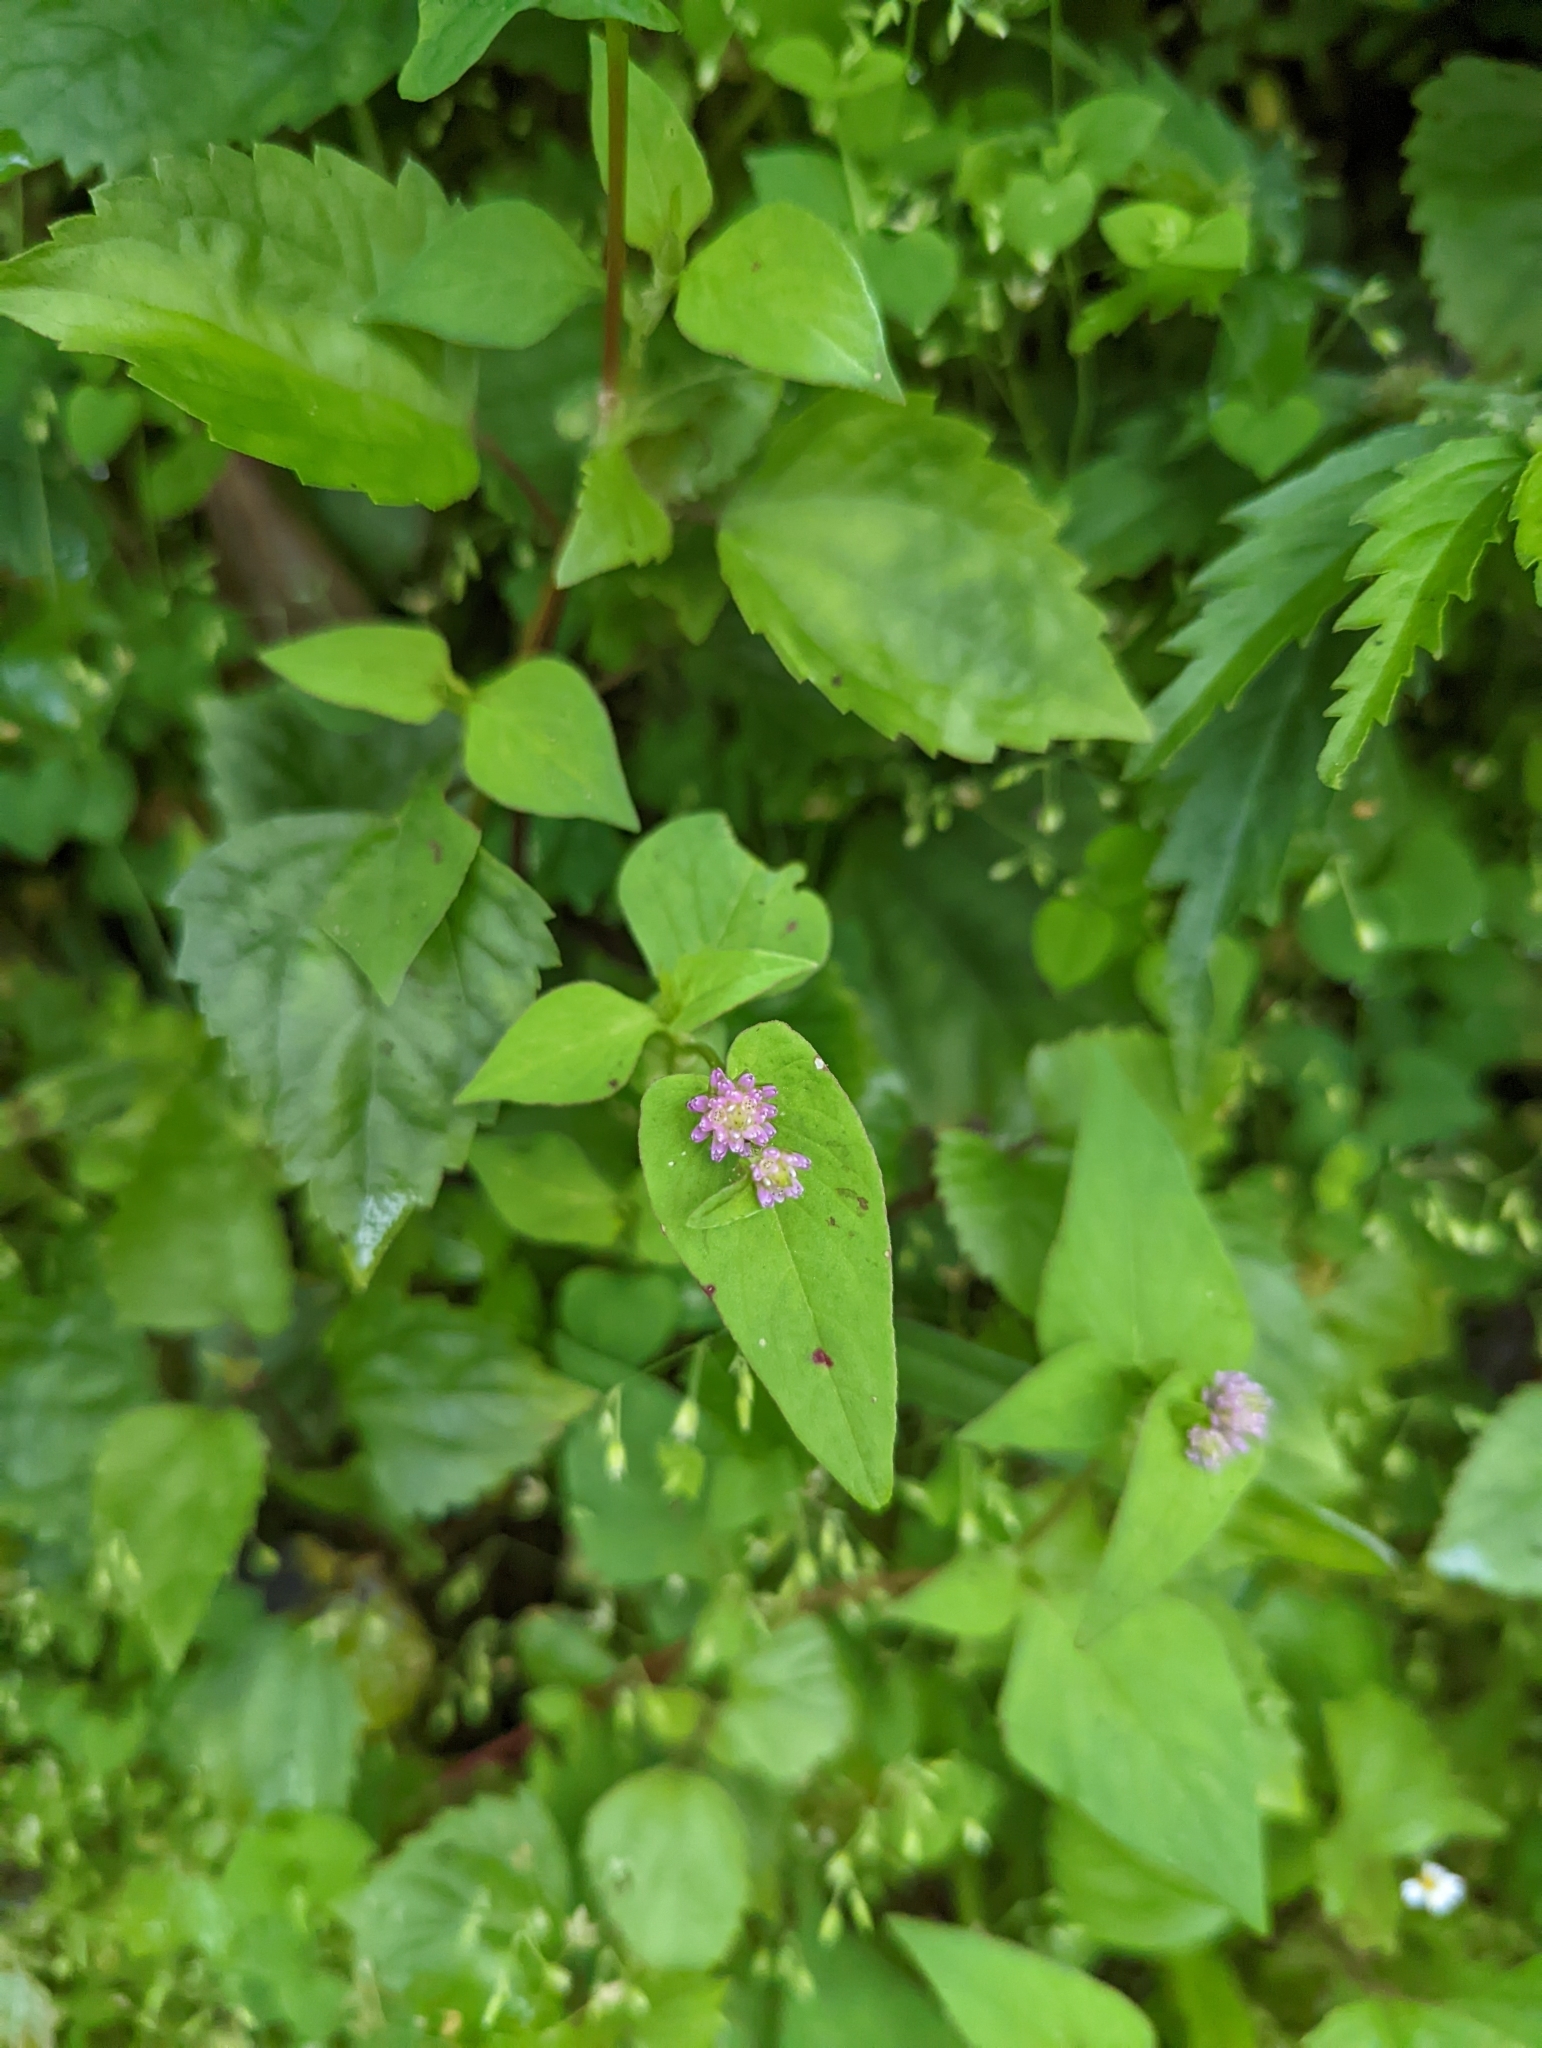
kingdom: Plantae
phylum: Tracheophyta
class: Magnoliopsida
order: Caryophyllales
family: Polygonaceae
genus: Persicaria
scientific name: Persicaria nepalensis
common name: Nepal persicaria
